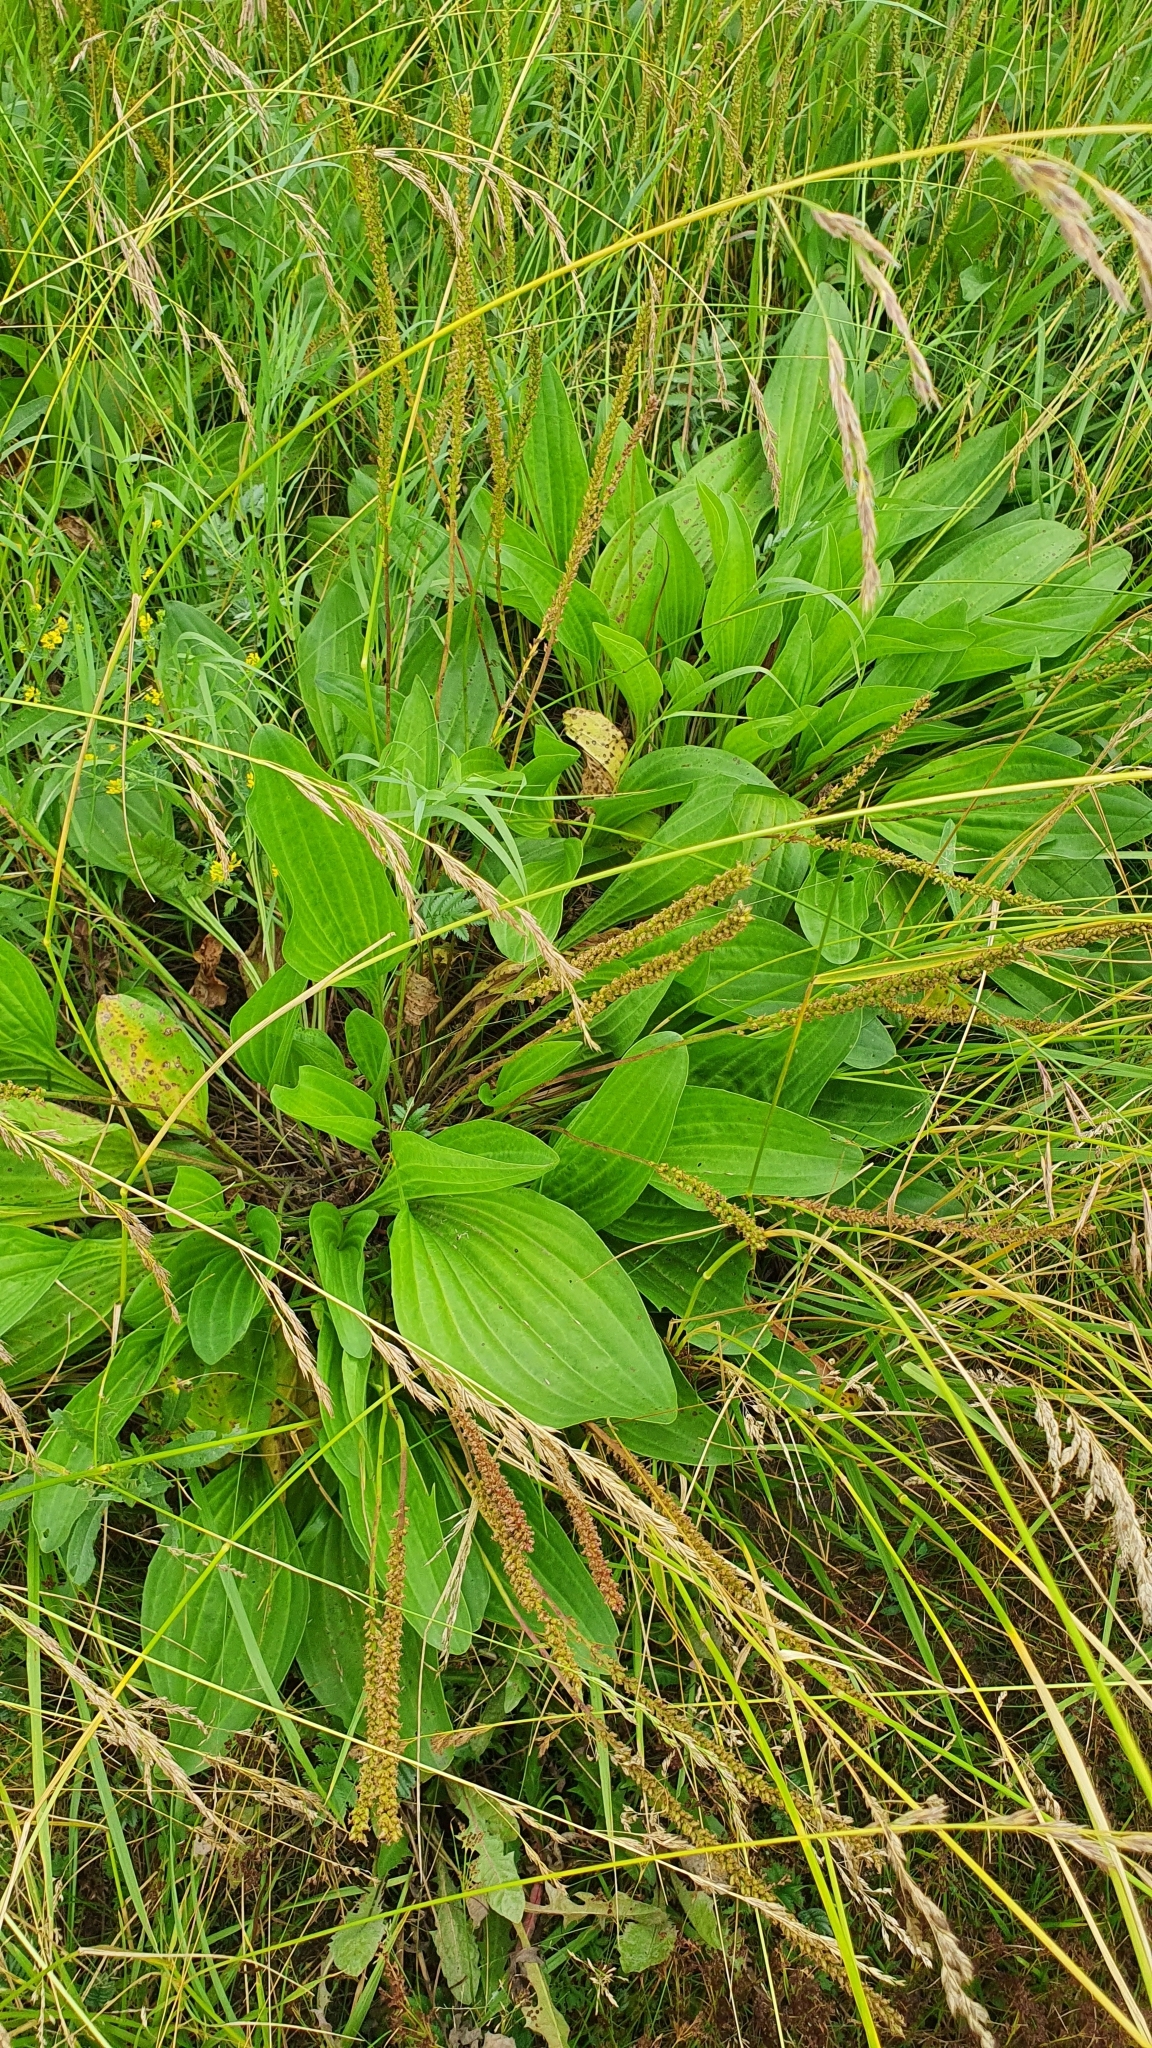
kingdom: Plantae
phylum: Tracheophyta
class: Magnoliopsida
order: Lamiales
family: Plantaginaceae
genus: Plantago
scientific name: Plantago cornuti
